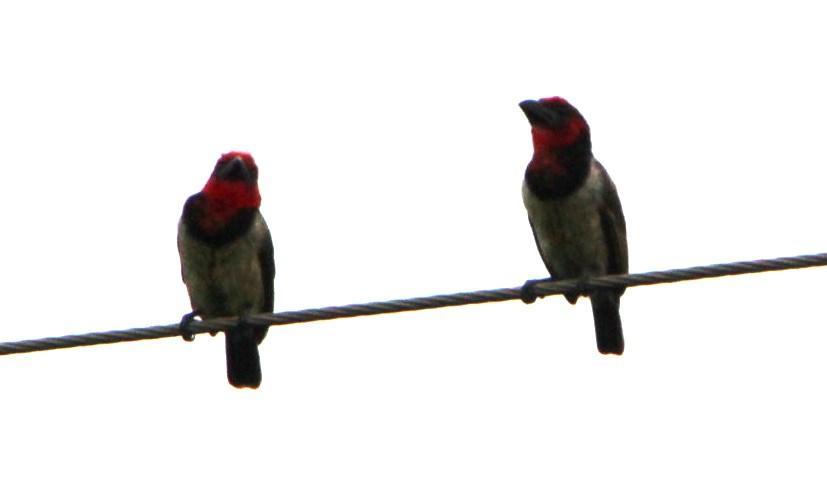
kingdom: Animalia
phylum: Chordata
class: Aves
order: Piciformes
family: Lybiidae
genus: Lybius
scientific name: Lybius torquatus
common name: Black-collared barbet
